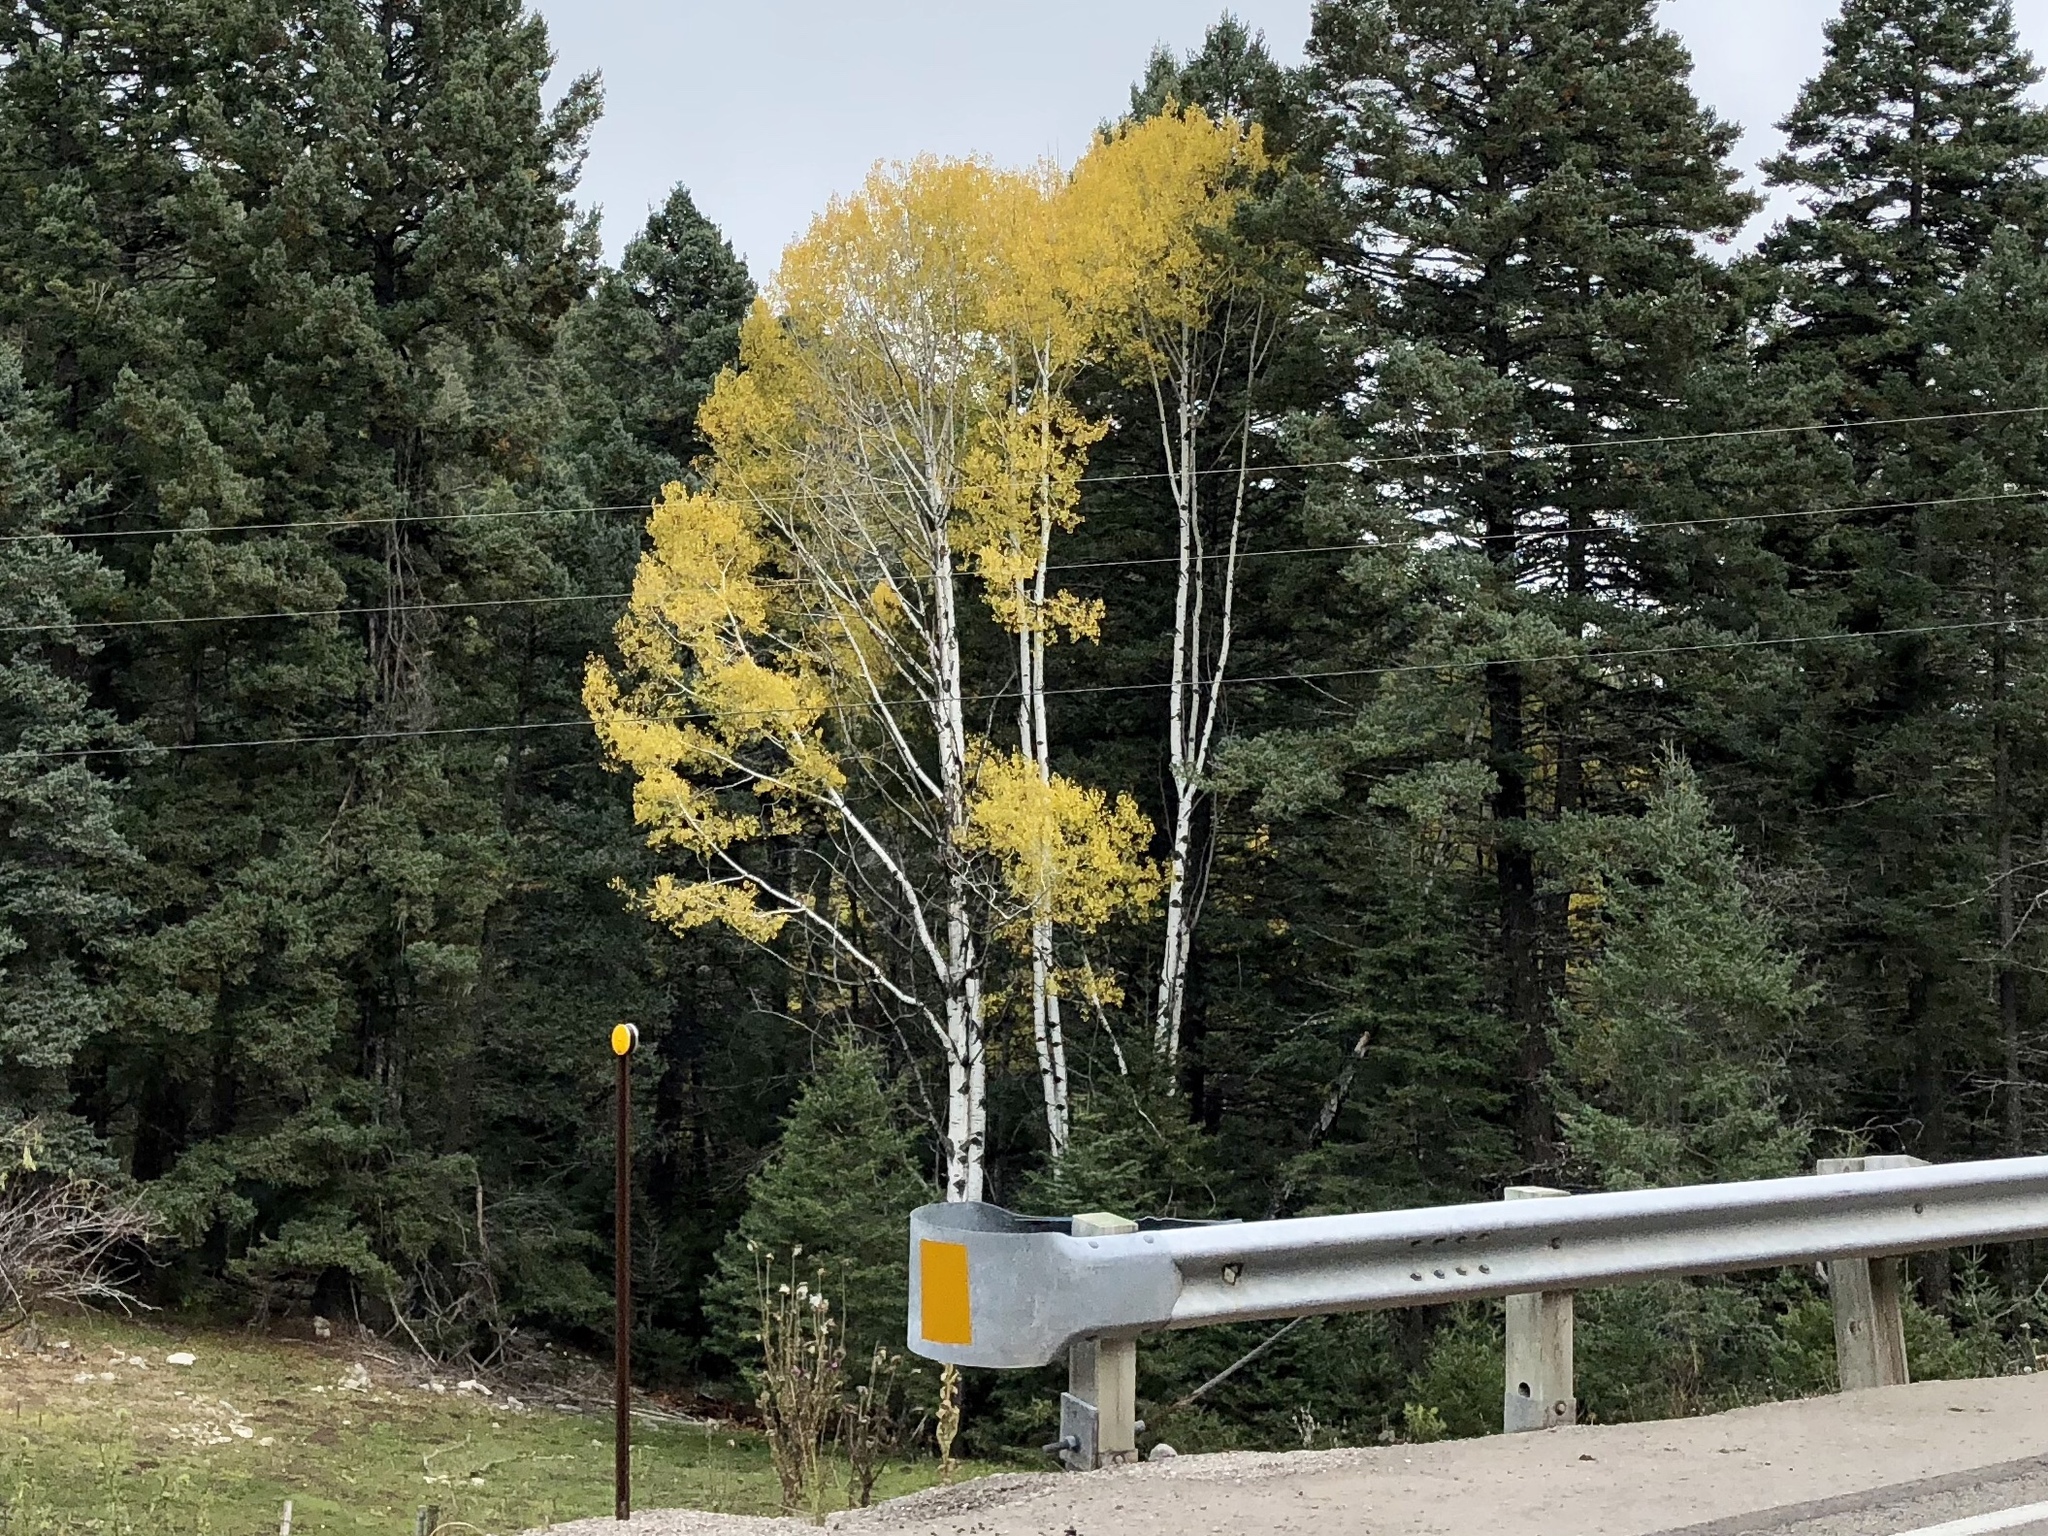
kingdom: Plantae
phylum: Tracheophyta
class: Magnoliopsida
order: Malpighiales
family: Salicaceae
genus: Populus
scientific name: Populus tremuloides
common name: Quaking aspen
